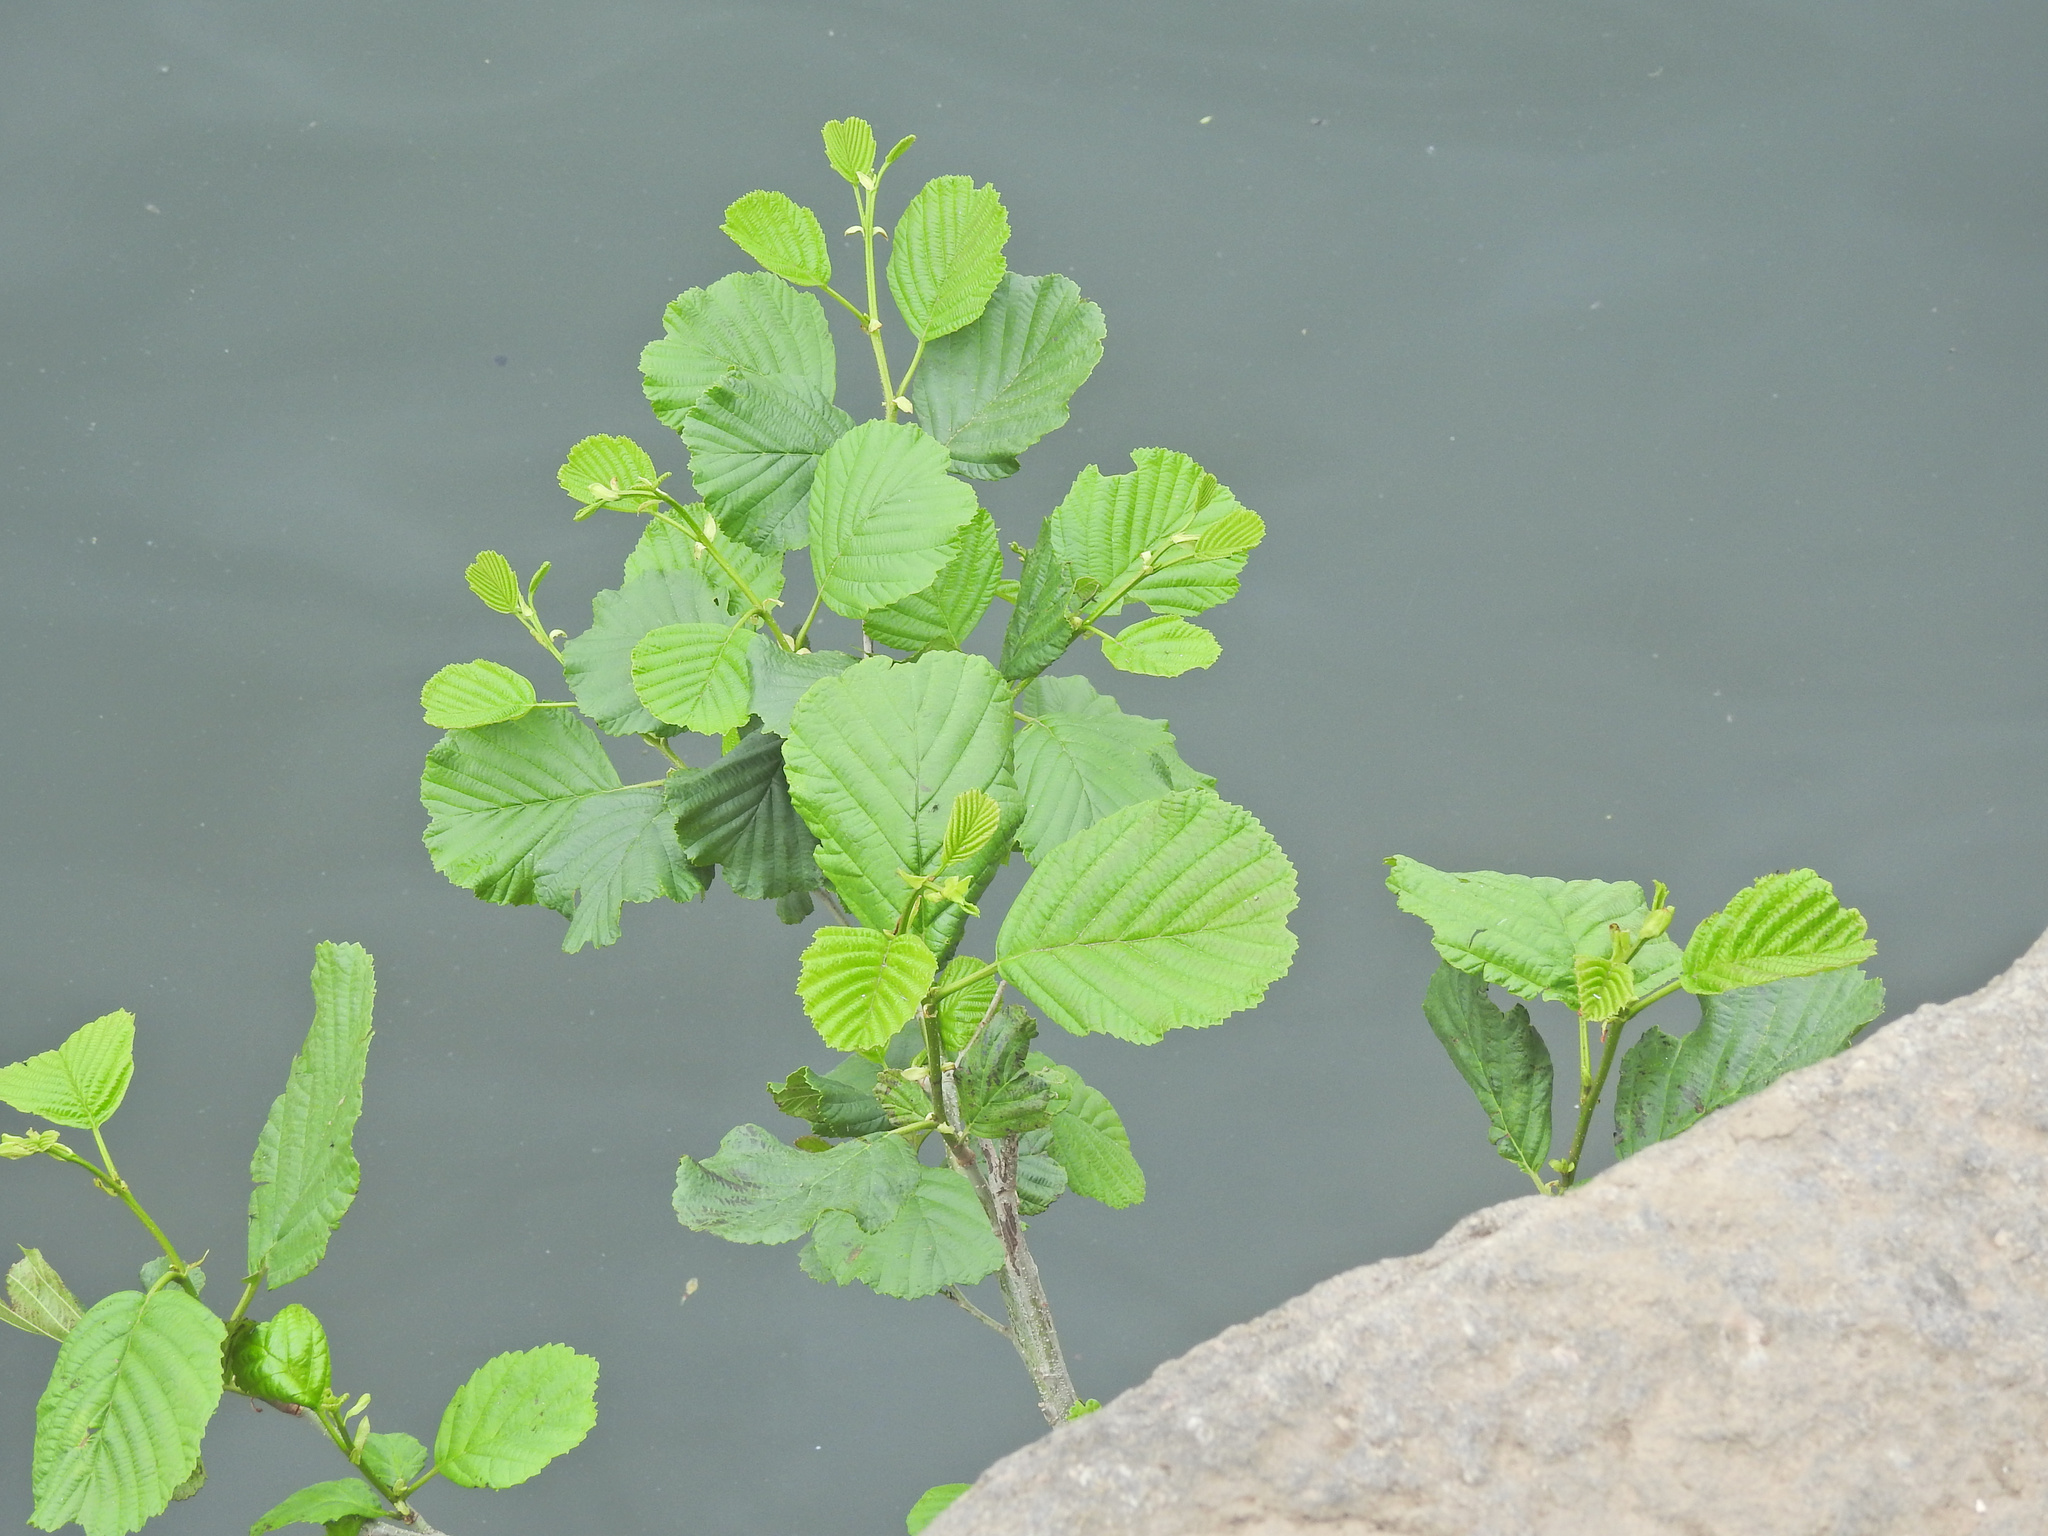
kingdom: Plantae
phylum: Tracheophyta
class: Magnoliopsida
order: Fagales
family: Betulaceae
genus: Alnus
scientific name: Alnus glutinosa
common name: Black alder
